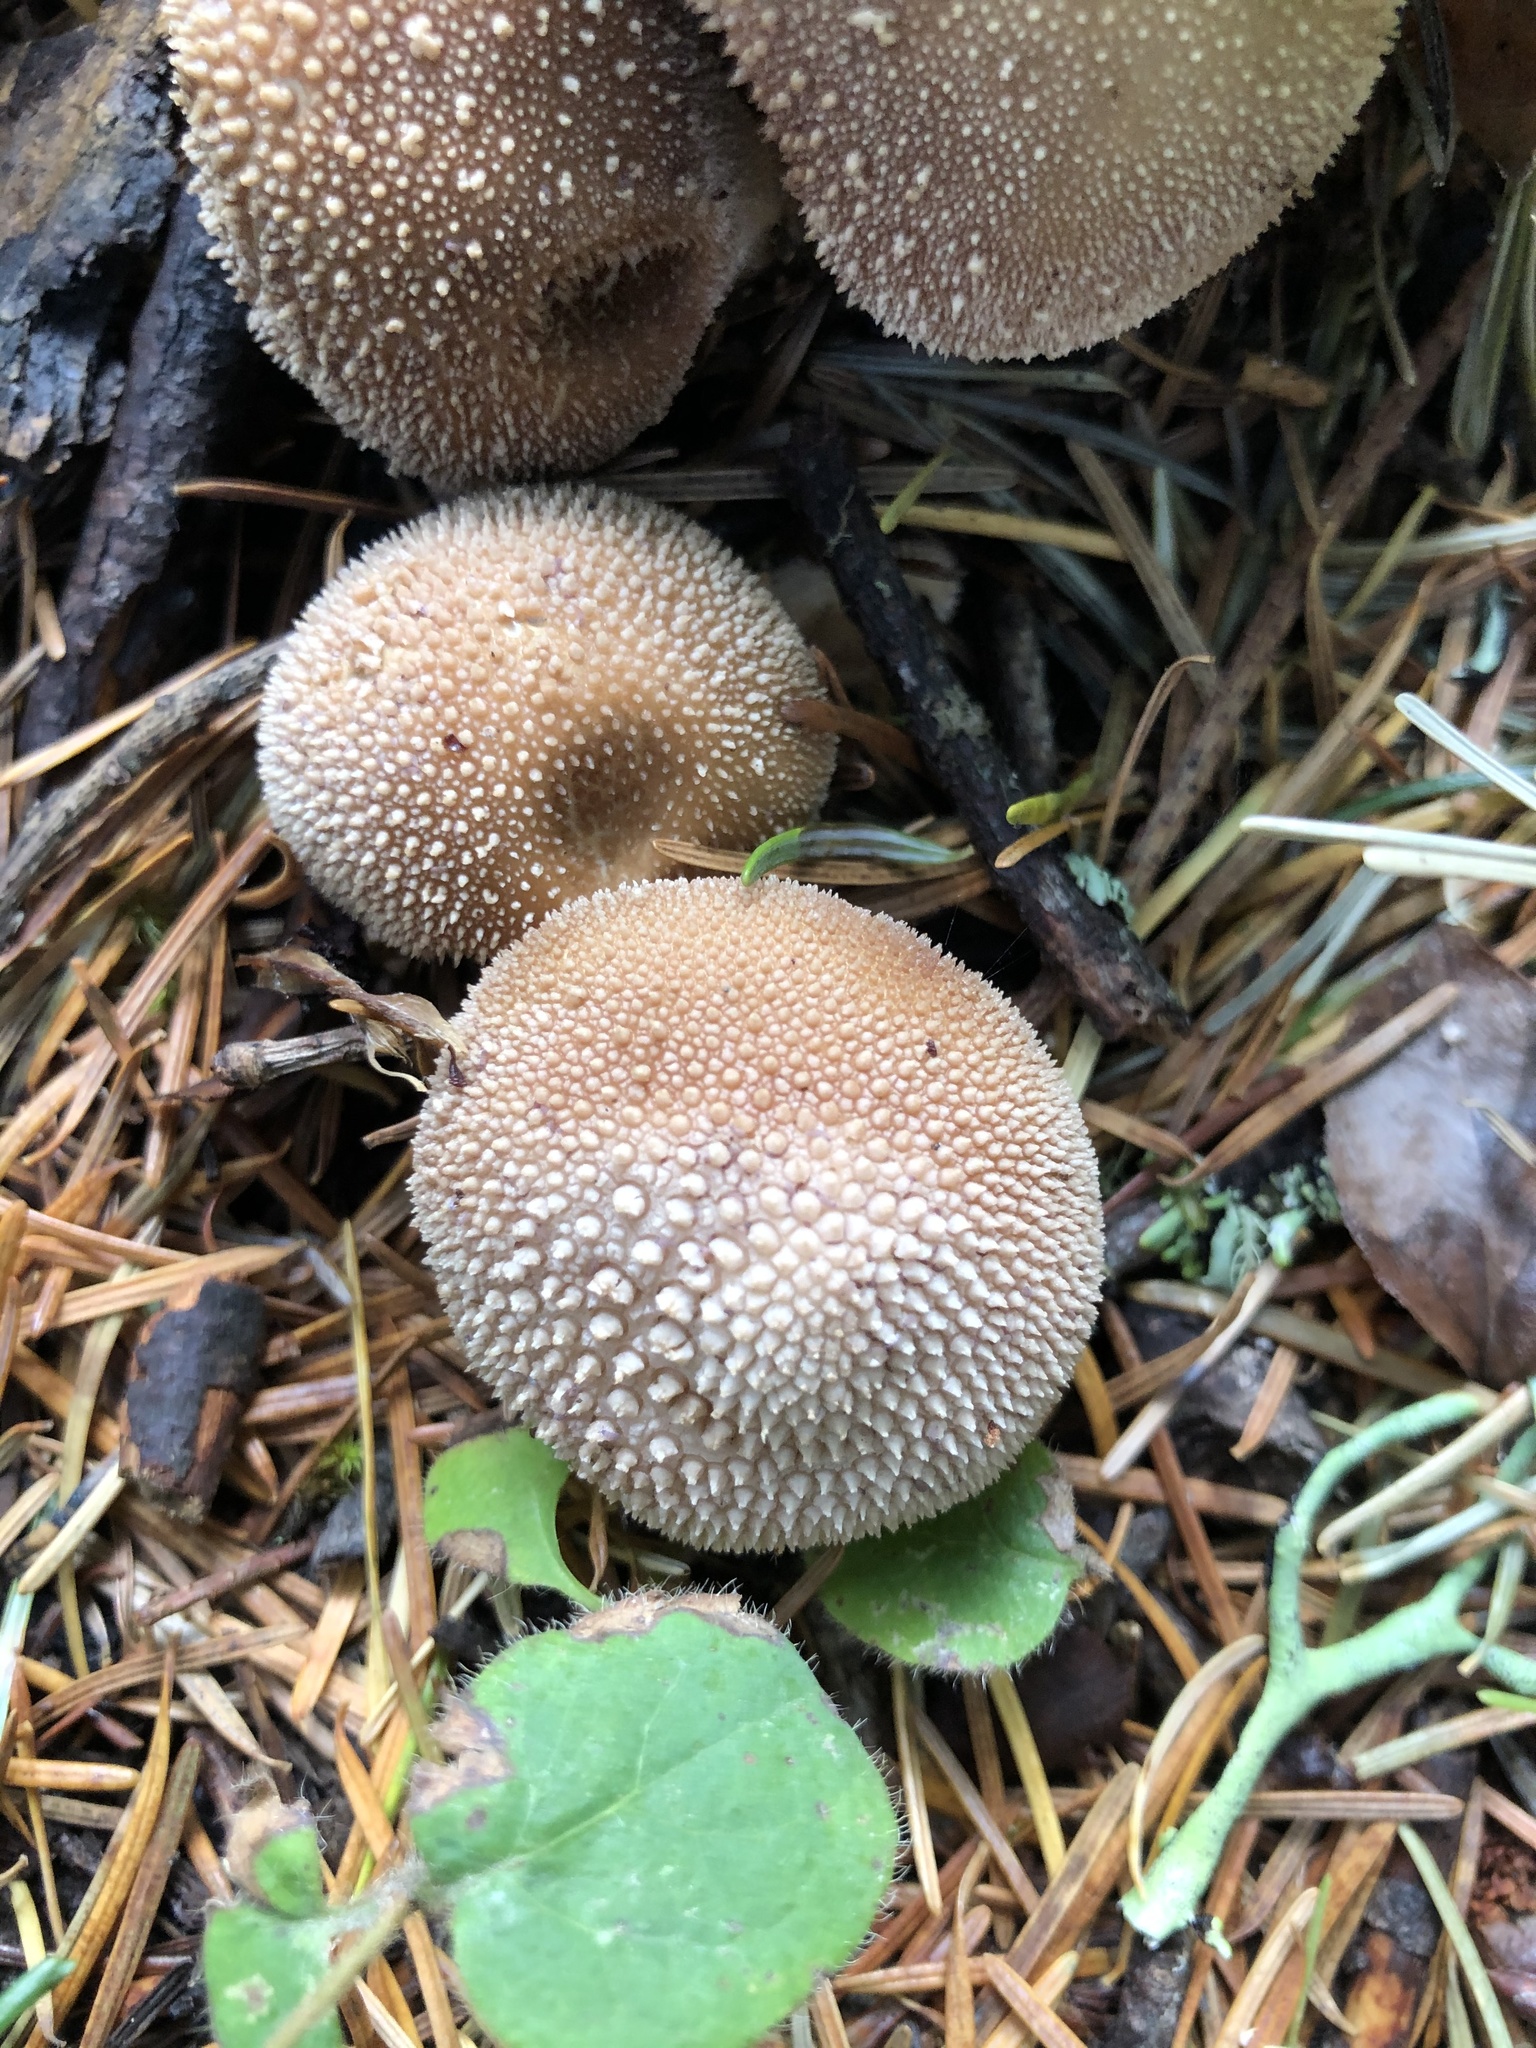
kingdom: Fungi
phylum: Basidiomycota
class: Agaricomycetes
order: Agaricales
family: Lycoperdaceae
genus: Lycoperdon
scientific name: Lycoperdon perlatum
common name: Common puffball
